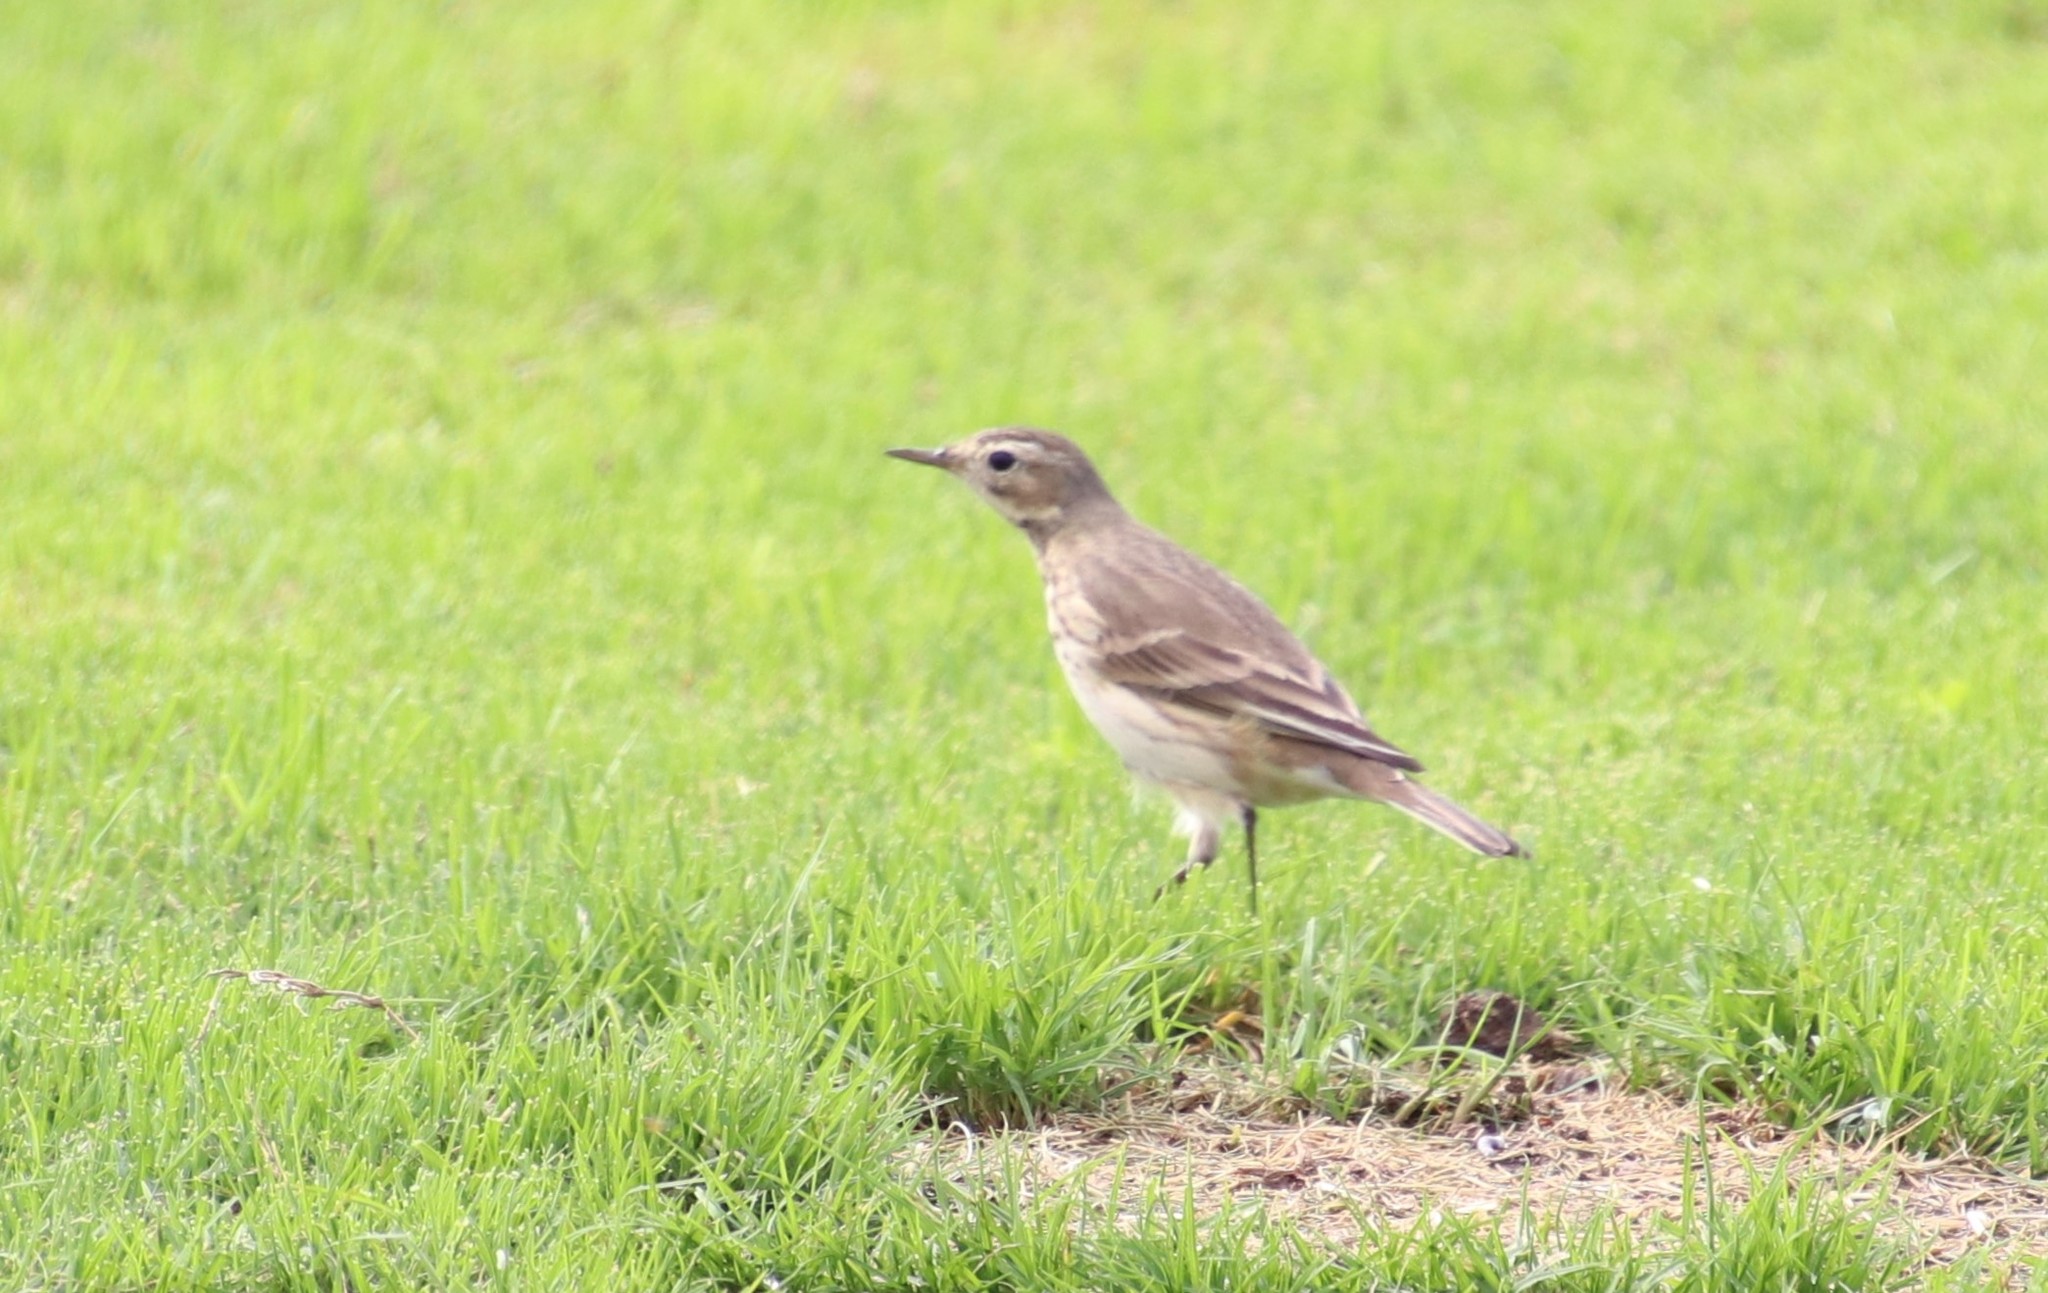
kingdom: Animalia
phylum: Chordata
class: Aves
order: Passeriformes
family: Motacillidae
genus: Anthus
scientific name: Anthus rubescens
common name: Buff-bellied pipit
